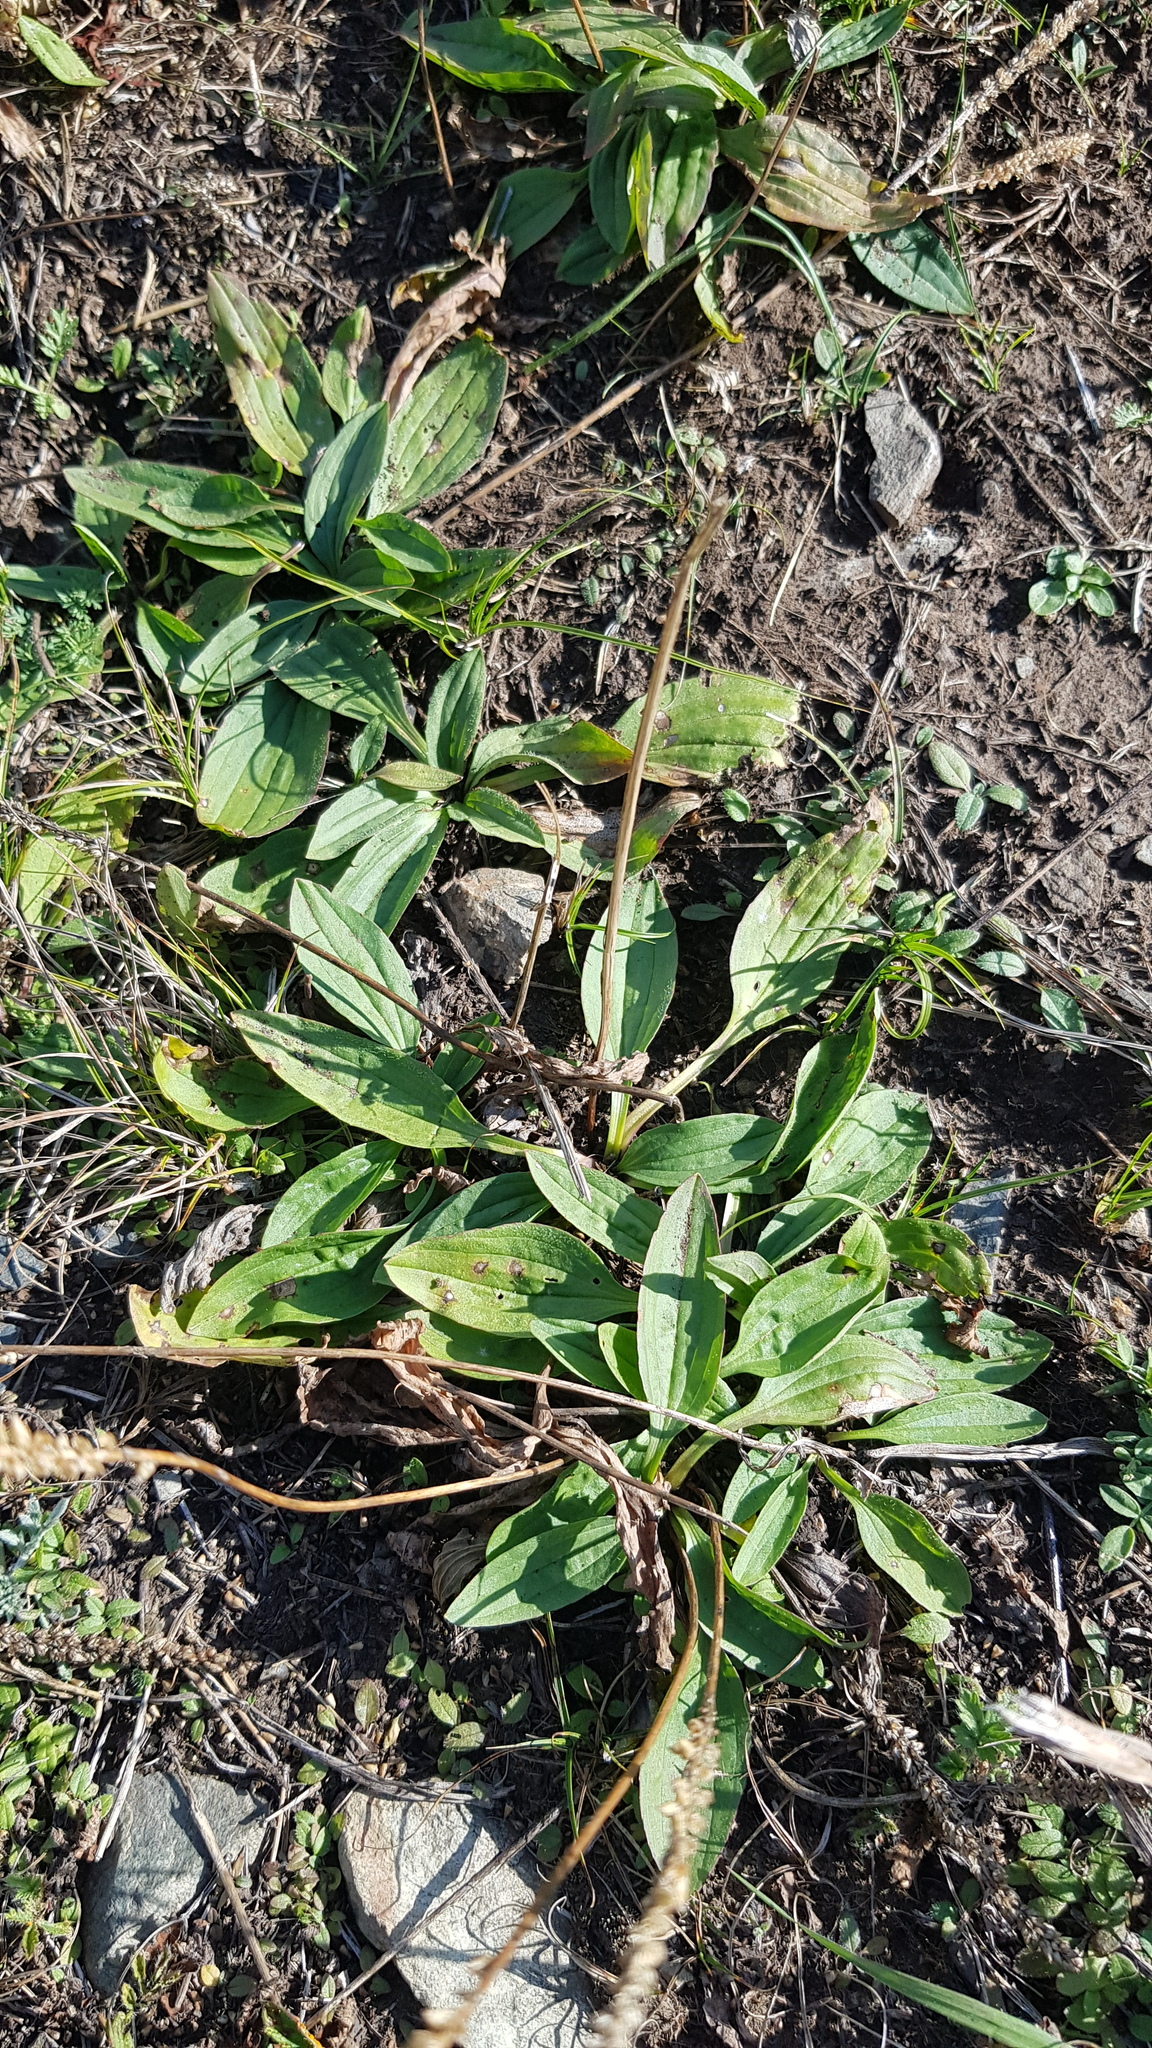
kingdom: Plantae
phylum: Tracheophyta
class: Magnoliopsida
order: Lamiales
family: Plantaginaceae
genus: Plantago
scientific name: Plantago depressa
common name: Depressed plantain
